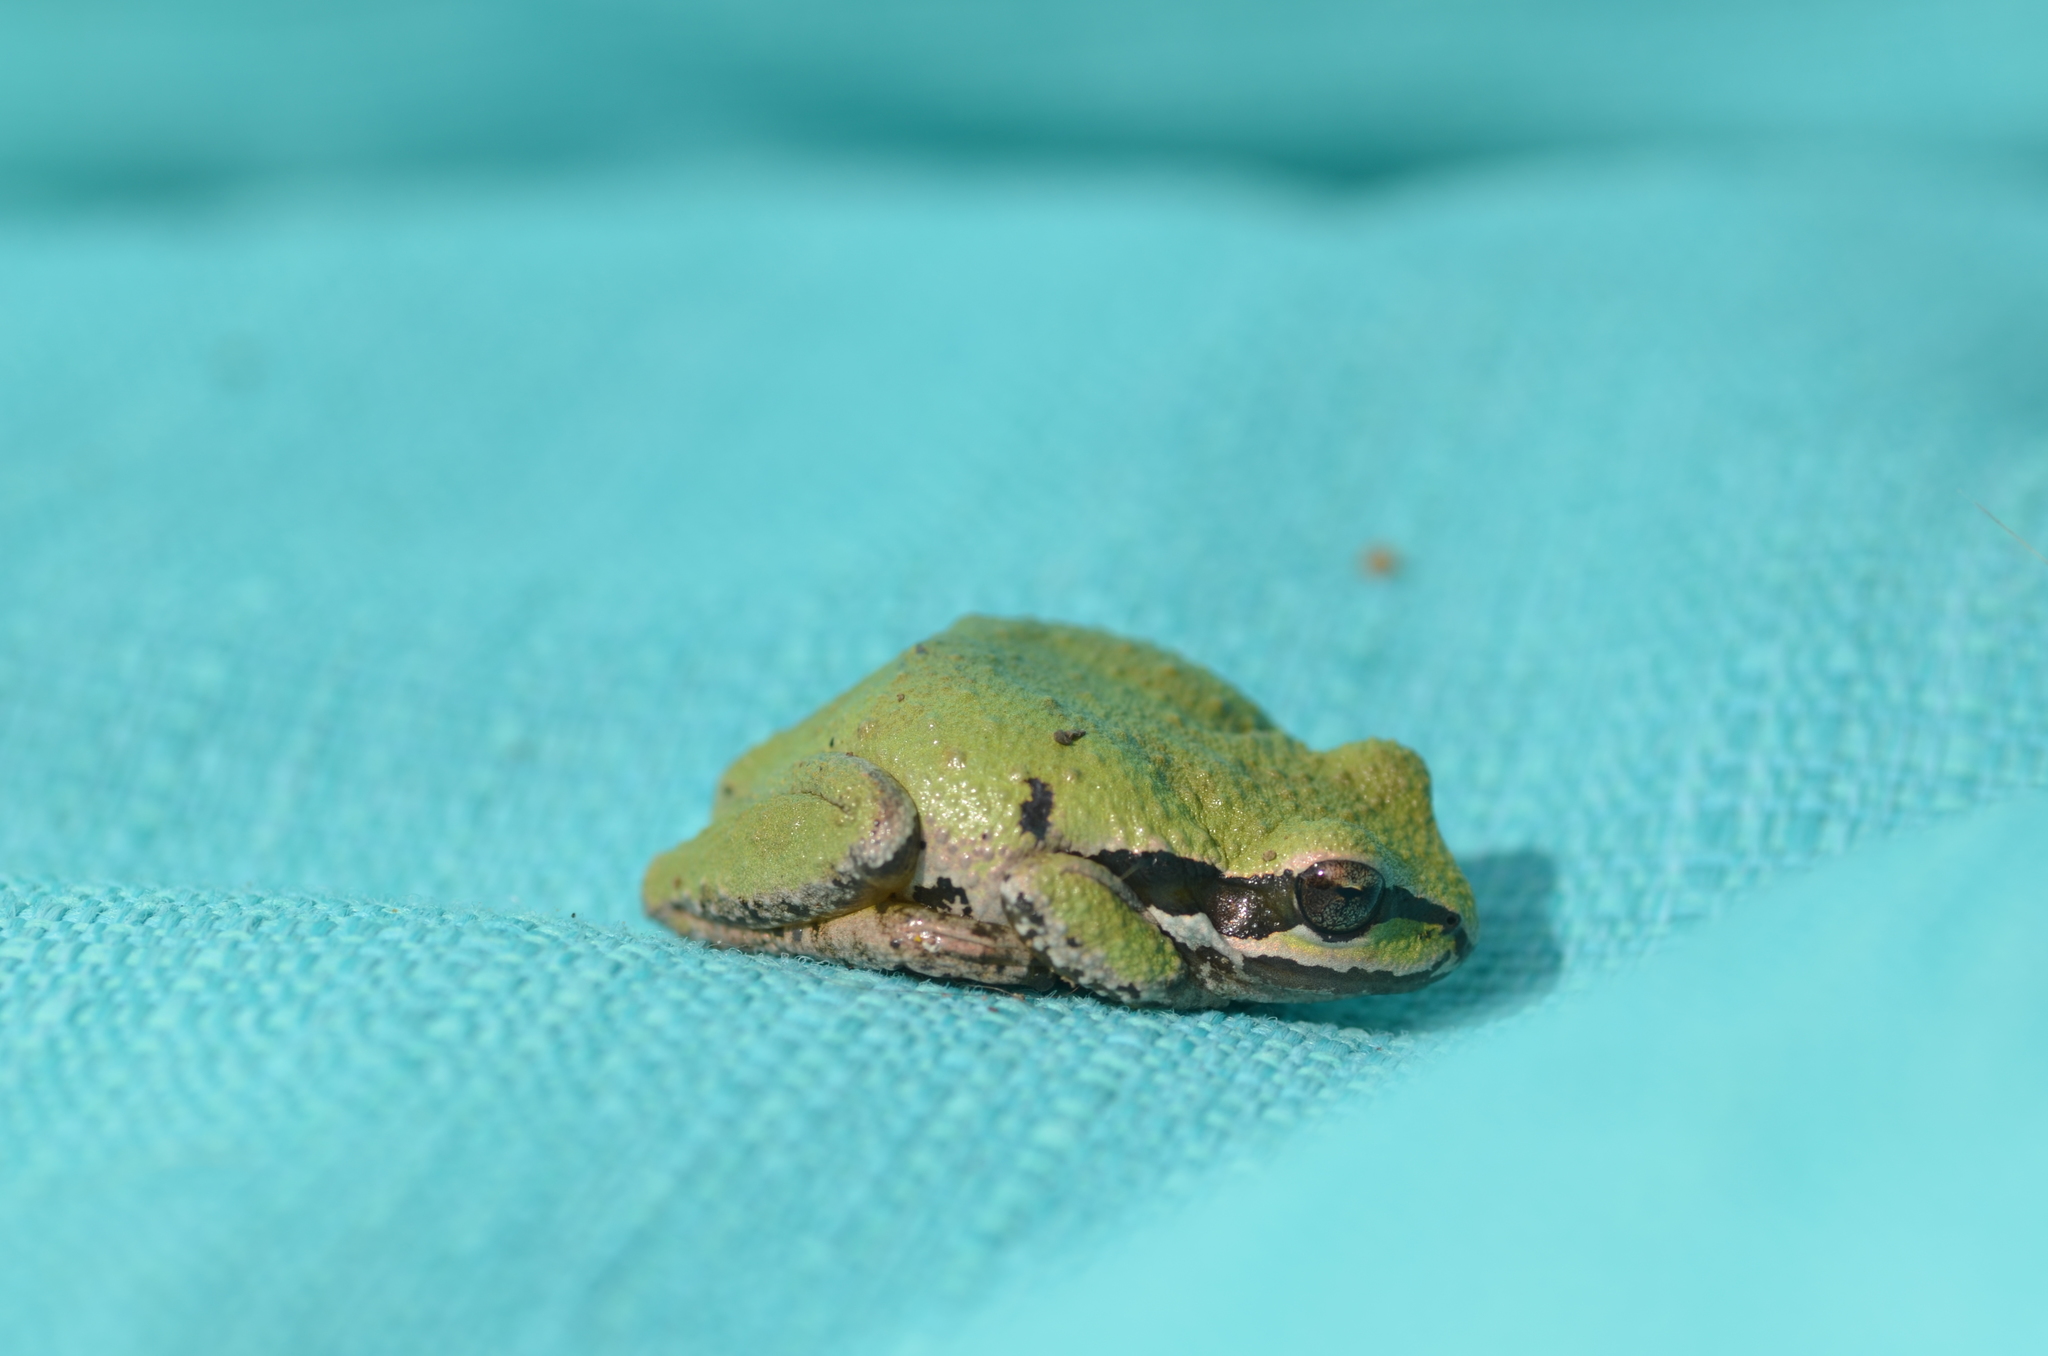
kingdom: Animalia
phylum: Chordata
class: Amphibia
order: Anura
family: Hylidae
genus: Pseudacris
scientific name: Pseudacris regilla
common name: Pacific chorus frog
